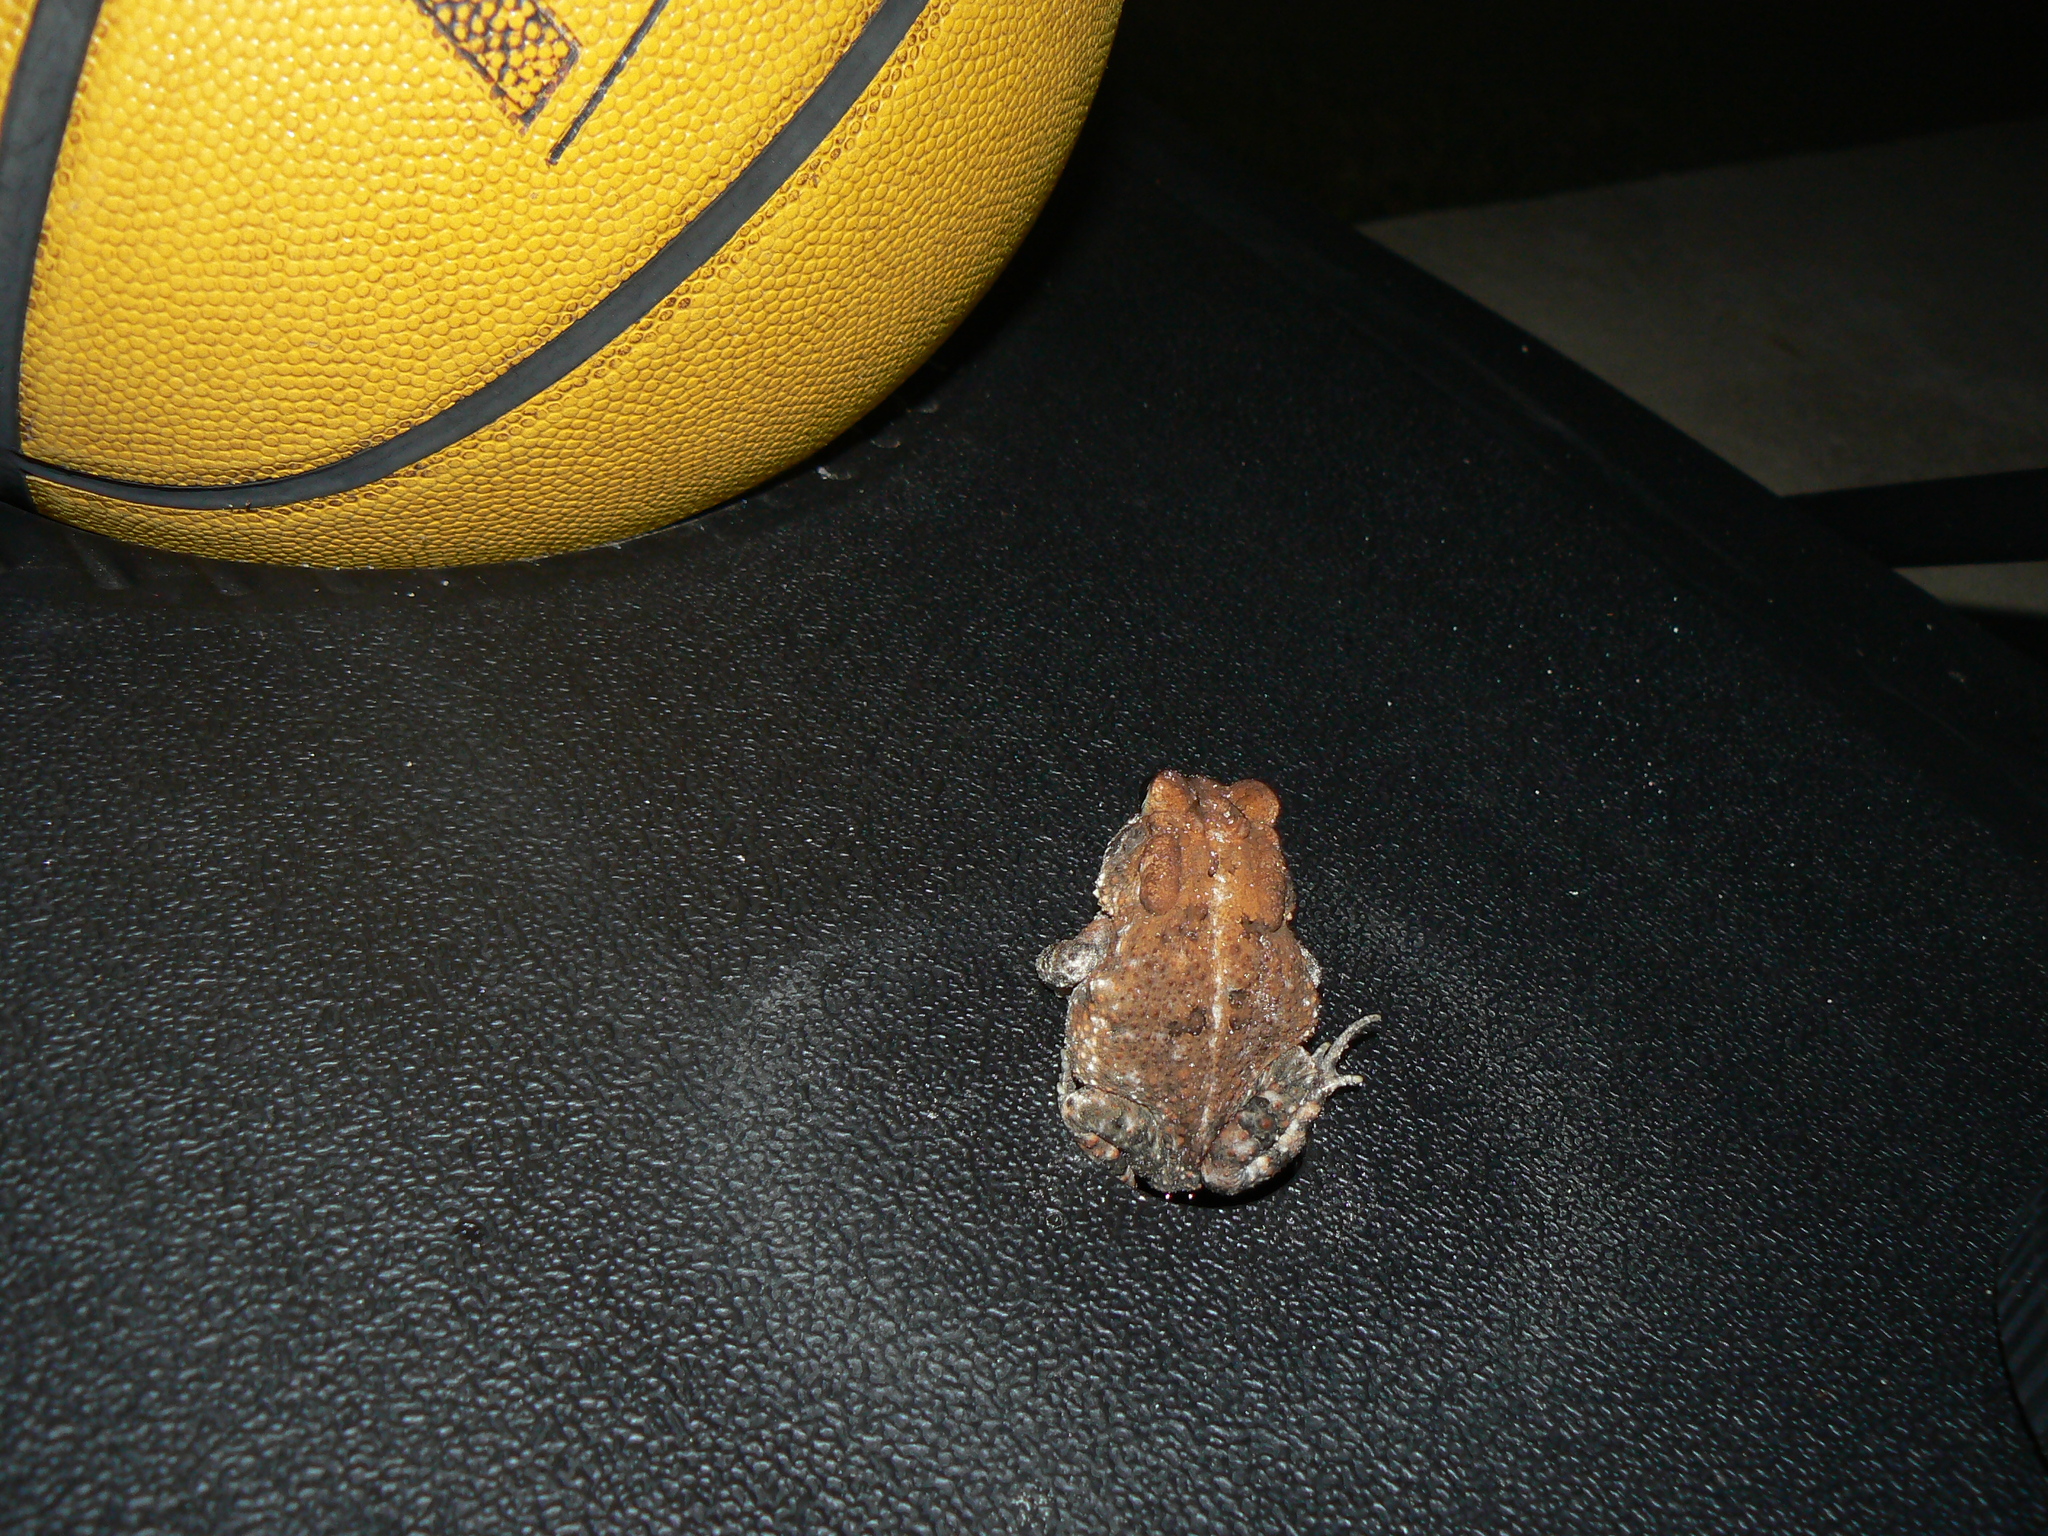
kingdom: Animalia
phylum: Chordata
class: Amphibia
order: Anura
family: Bufonidae
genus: Anaxyrus
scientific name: Anaxyrus terrestris
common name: Southern toad
